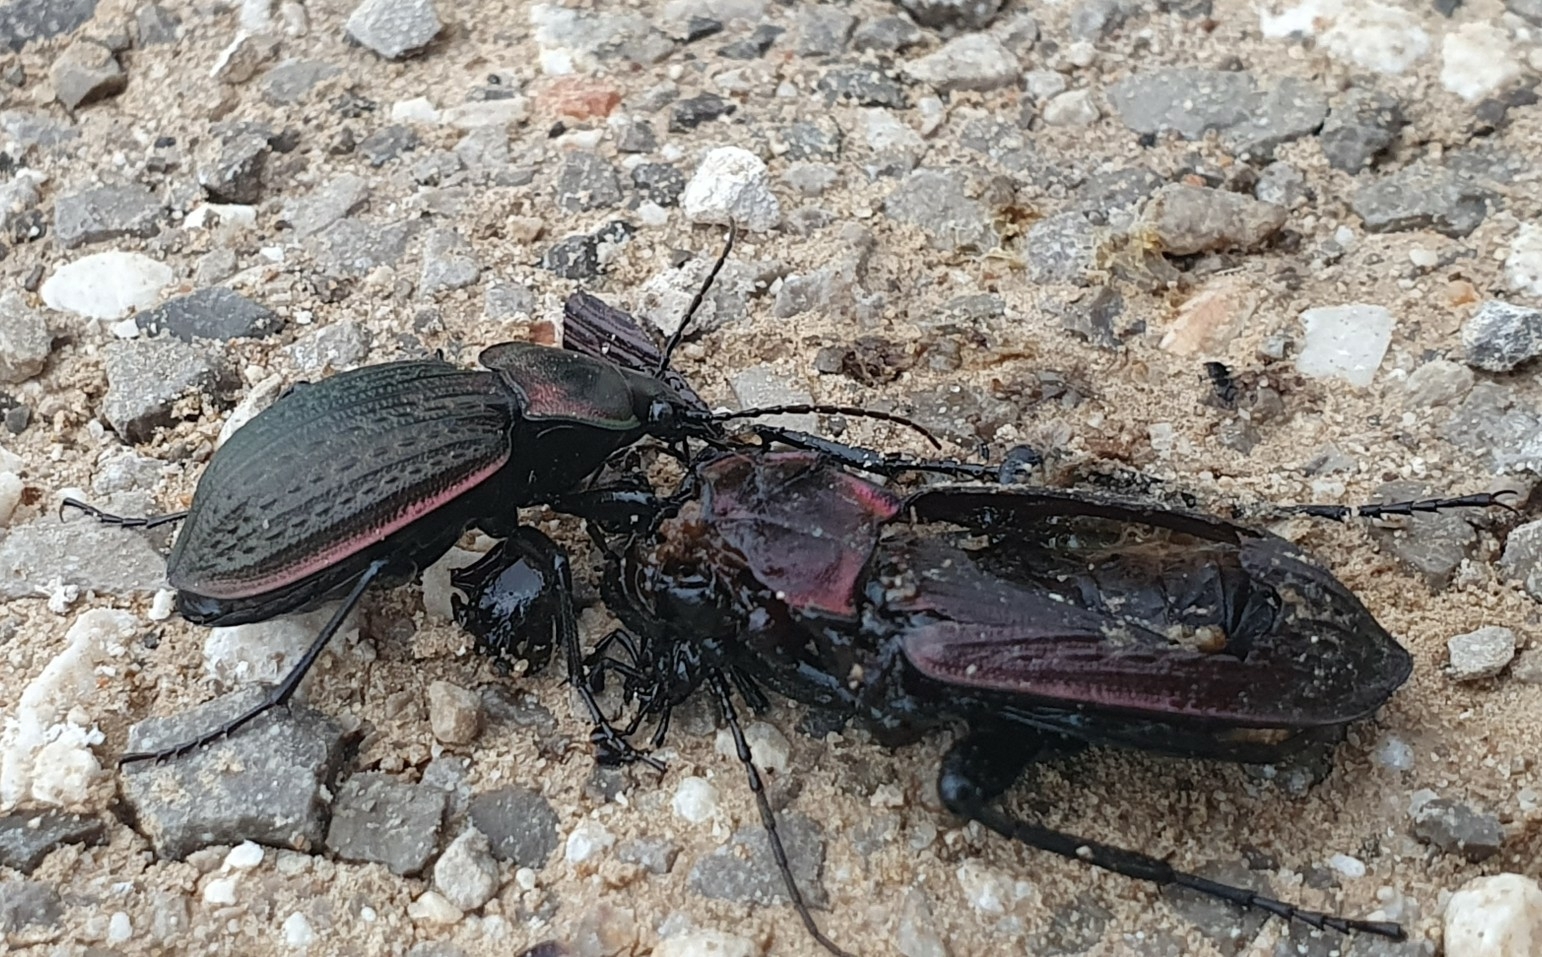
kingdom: Animalia
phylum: Arthropoda
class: Insecta
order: Coleoptera
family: Carabidae
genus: Carabus
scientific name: Carabus morbillosus
